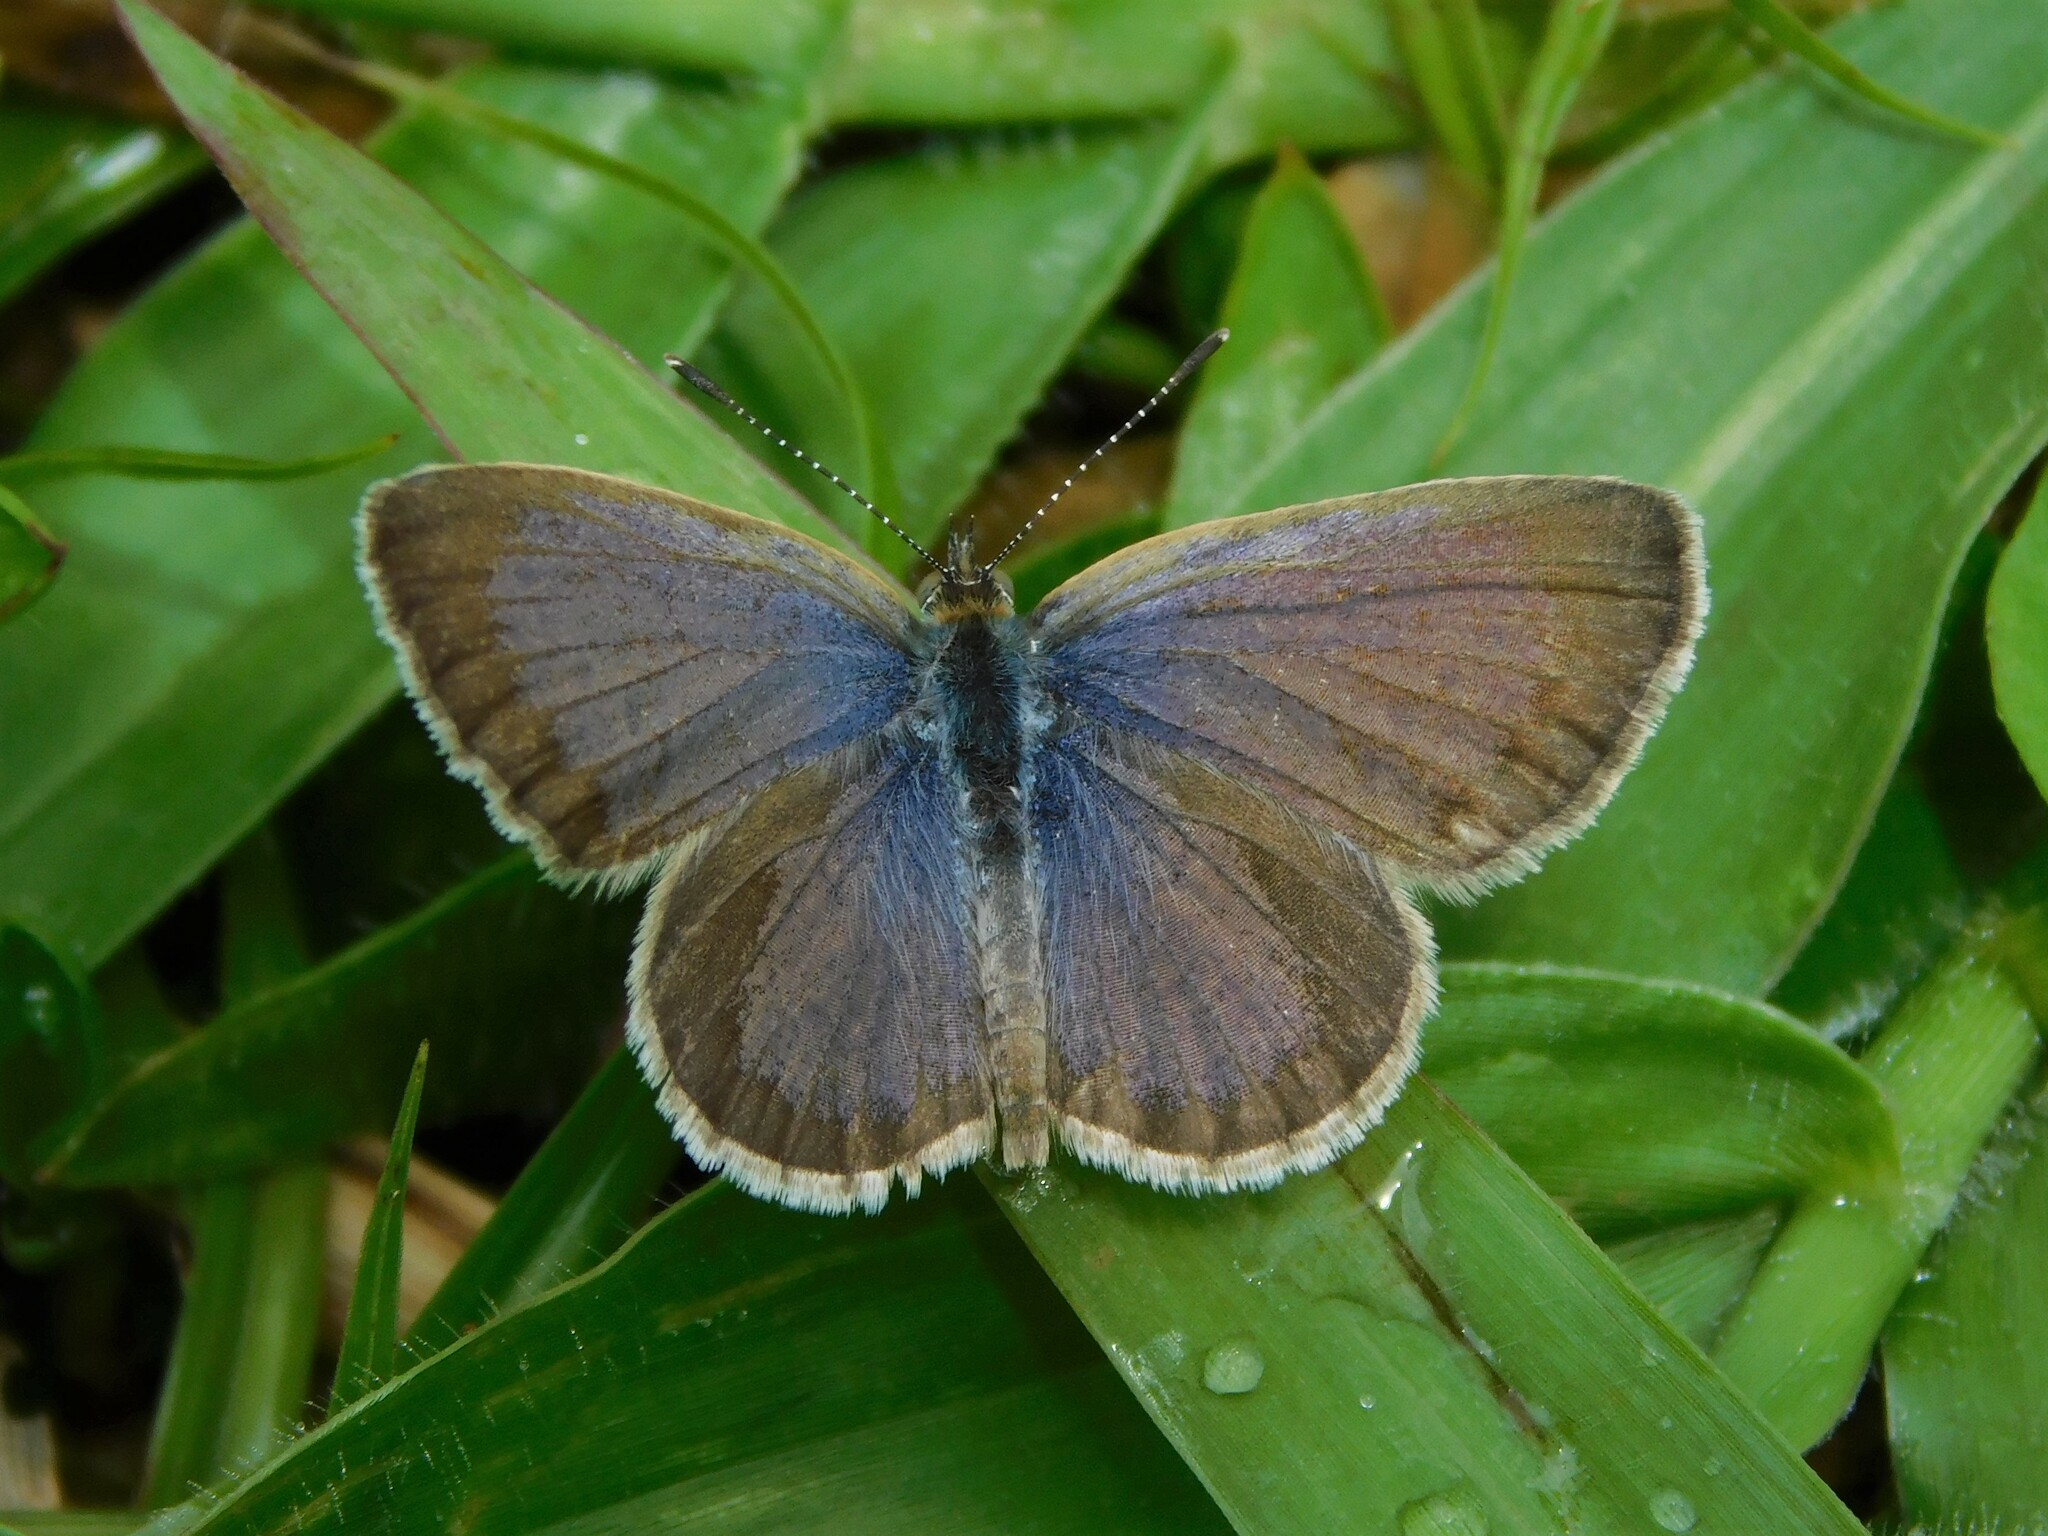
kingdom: Animalia
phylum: Arthropoda
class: Insecta
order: Lepidoptera
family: Lycaenidae
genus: Zizeeria
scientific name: Zizeeria knysna
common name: African grass blue
